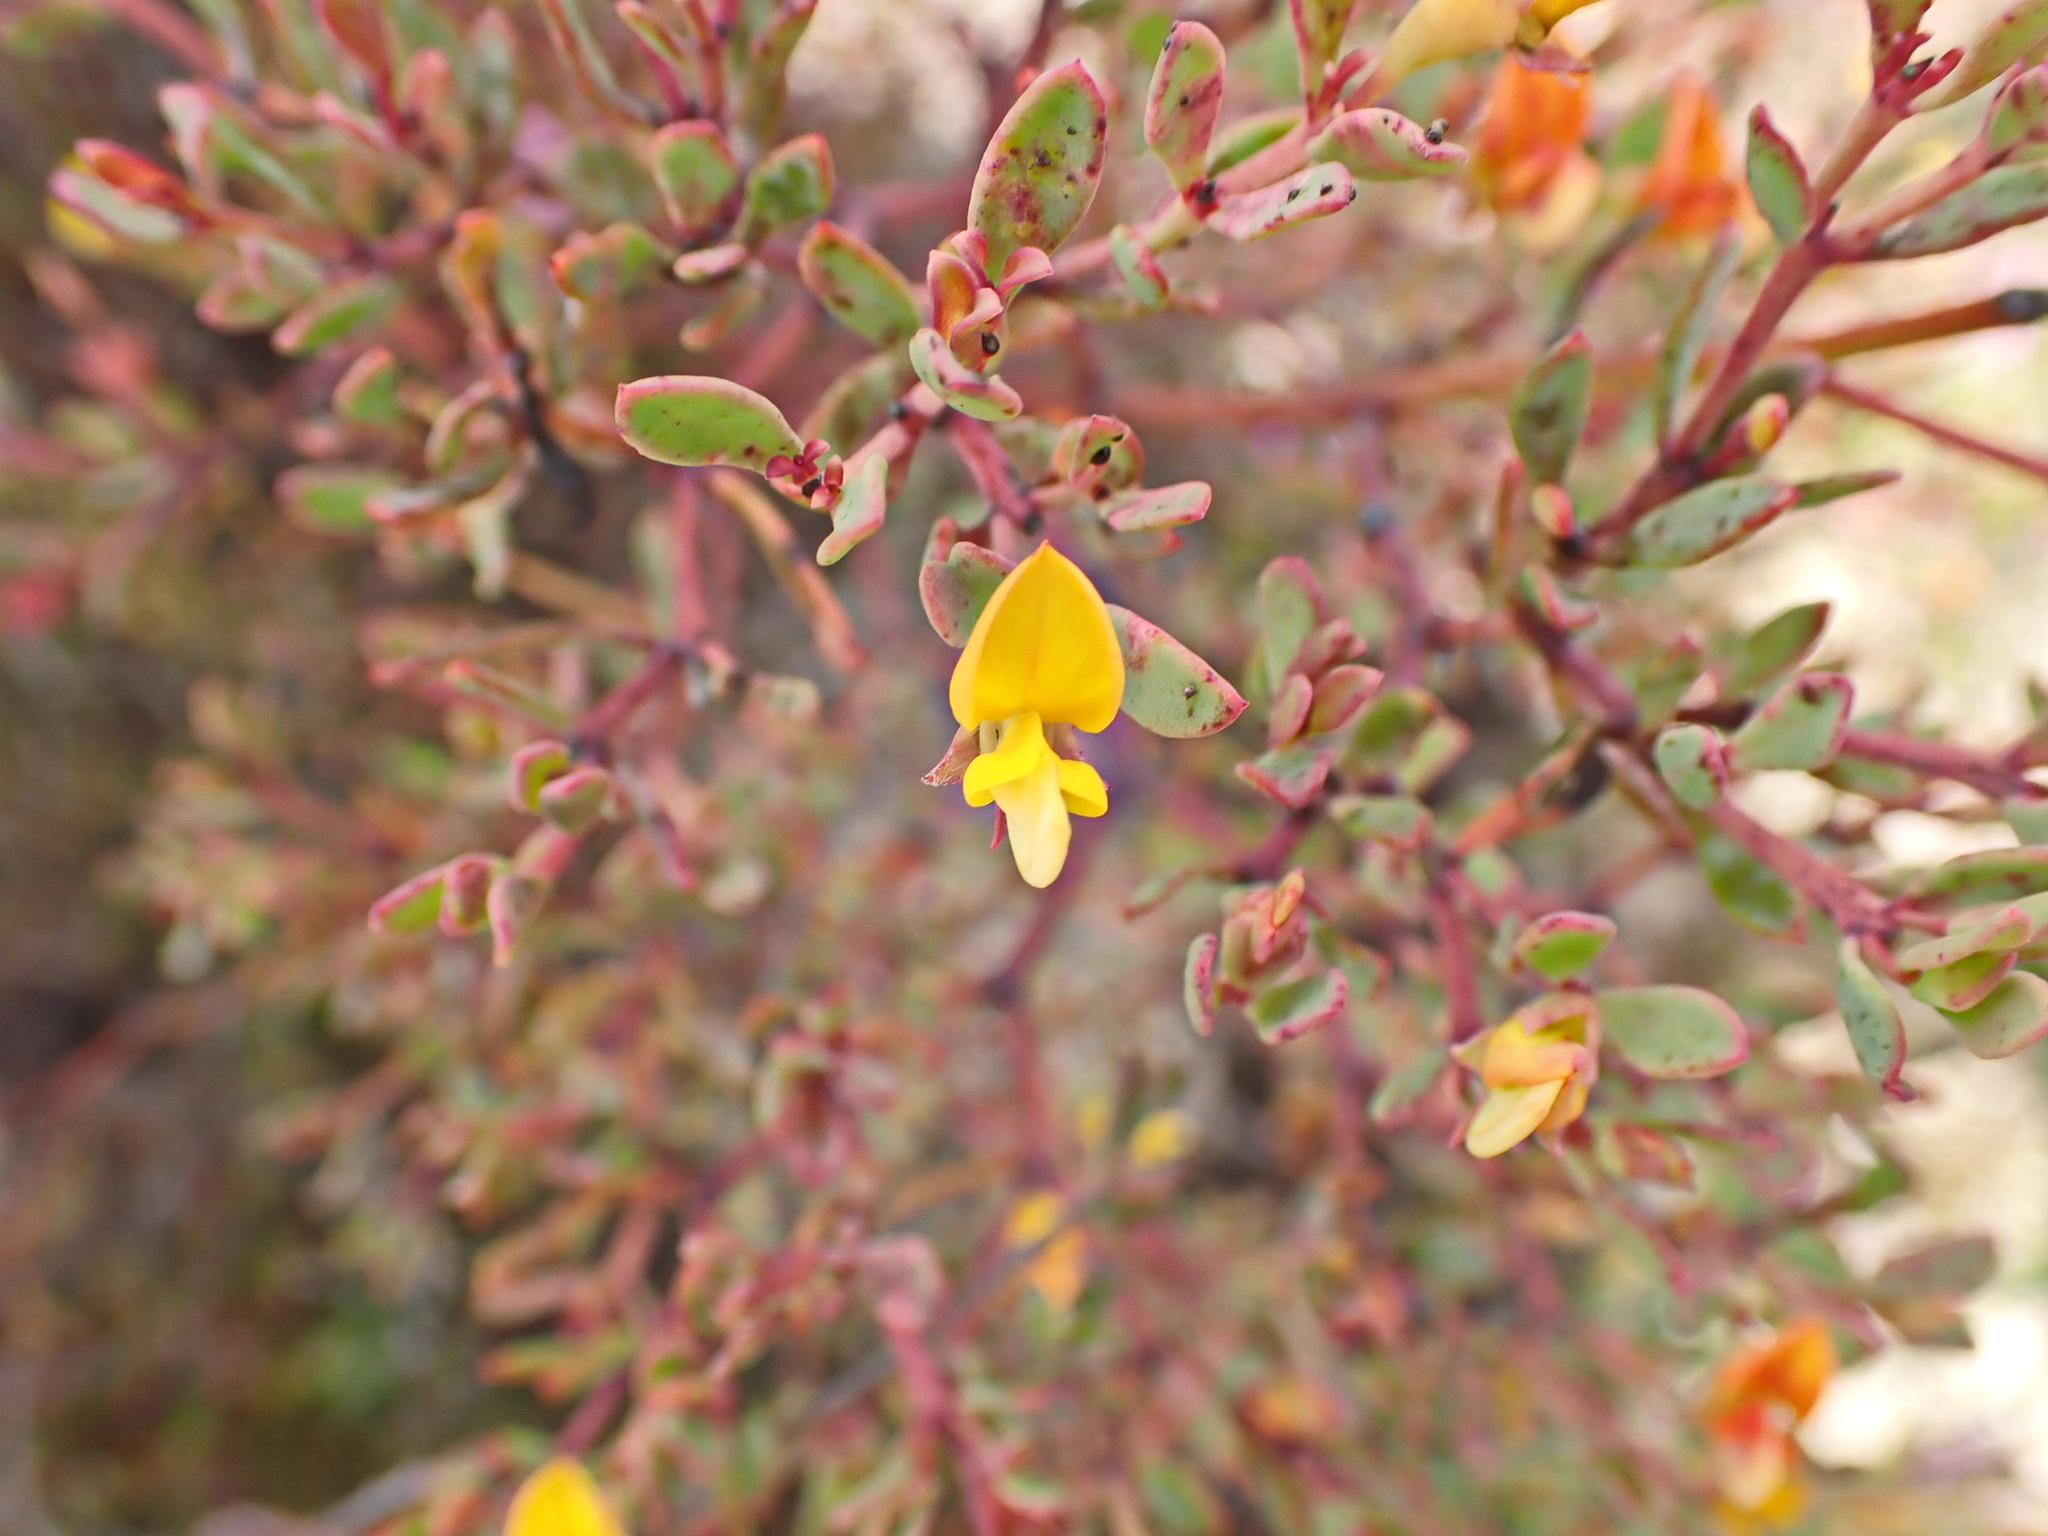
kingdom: Plantae
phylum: Tracheophyta
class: Magnoliopsida
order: Fabales
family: Fabaceae
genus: Rafnia
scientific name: Rafnia capensis
